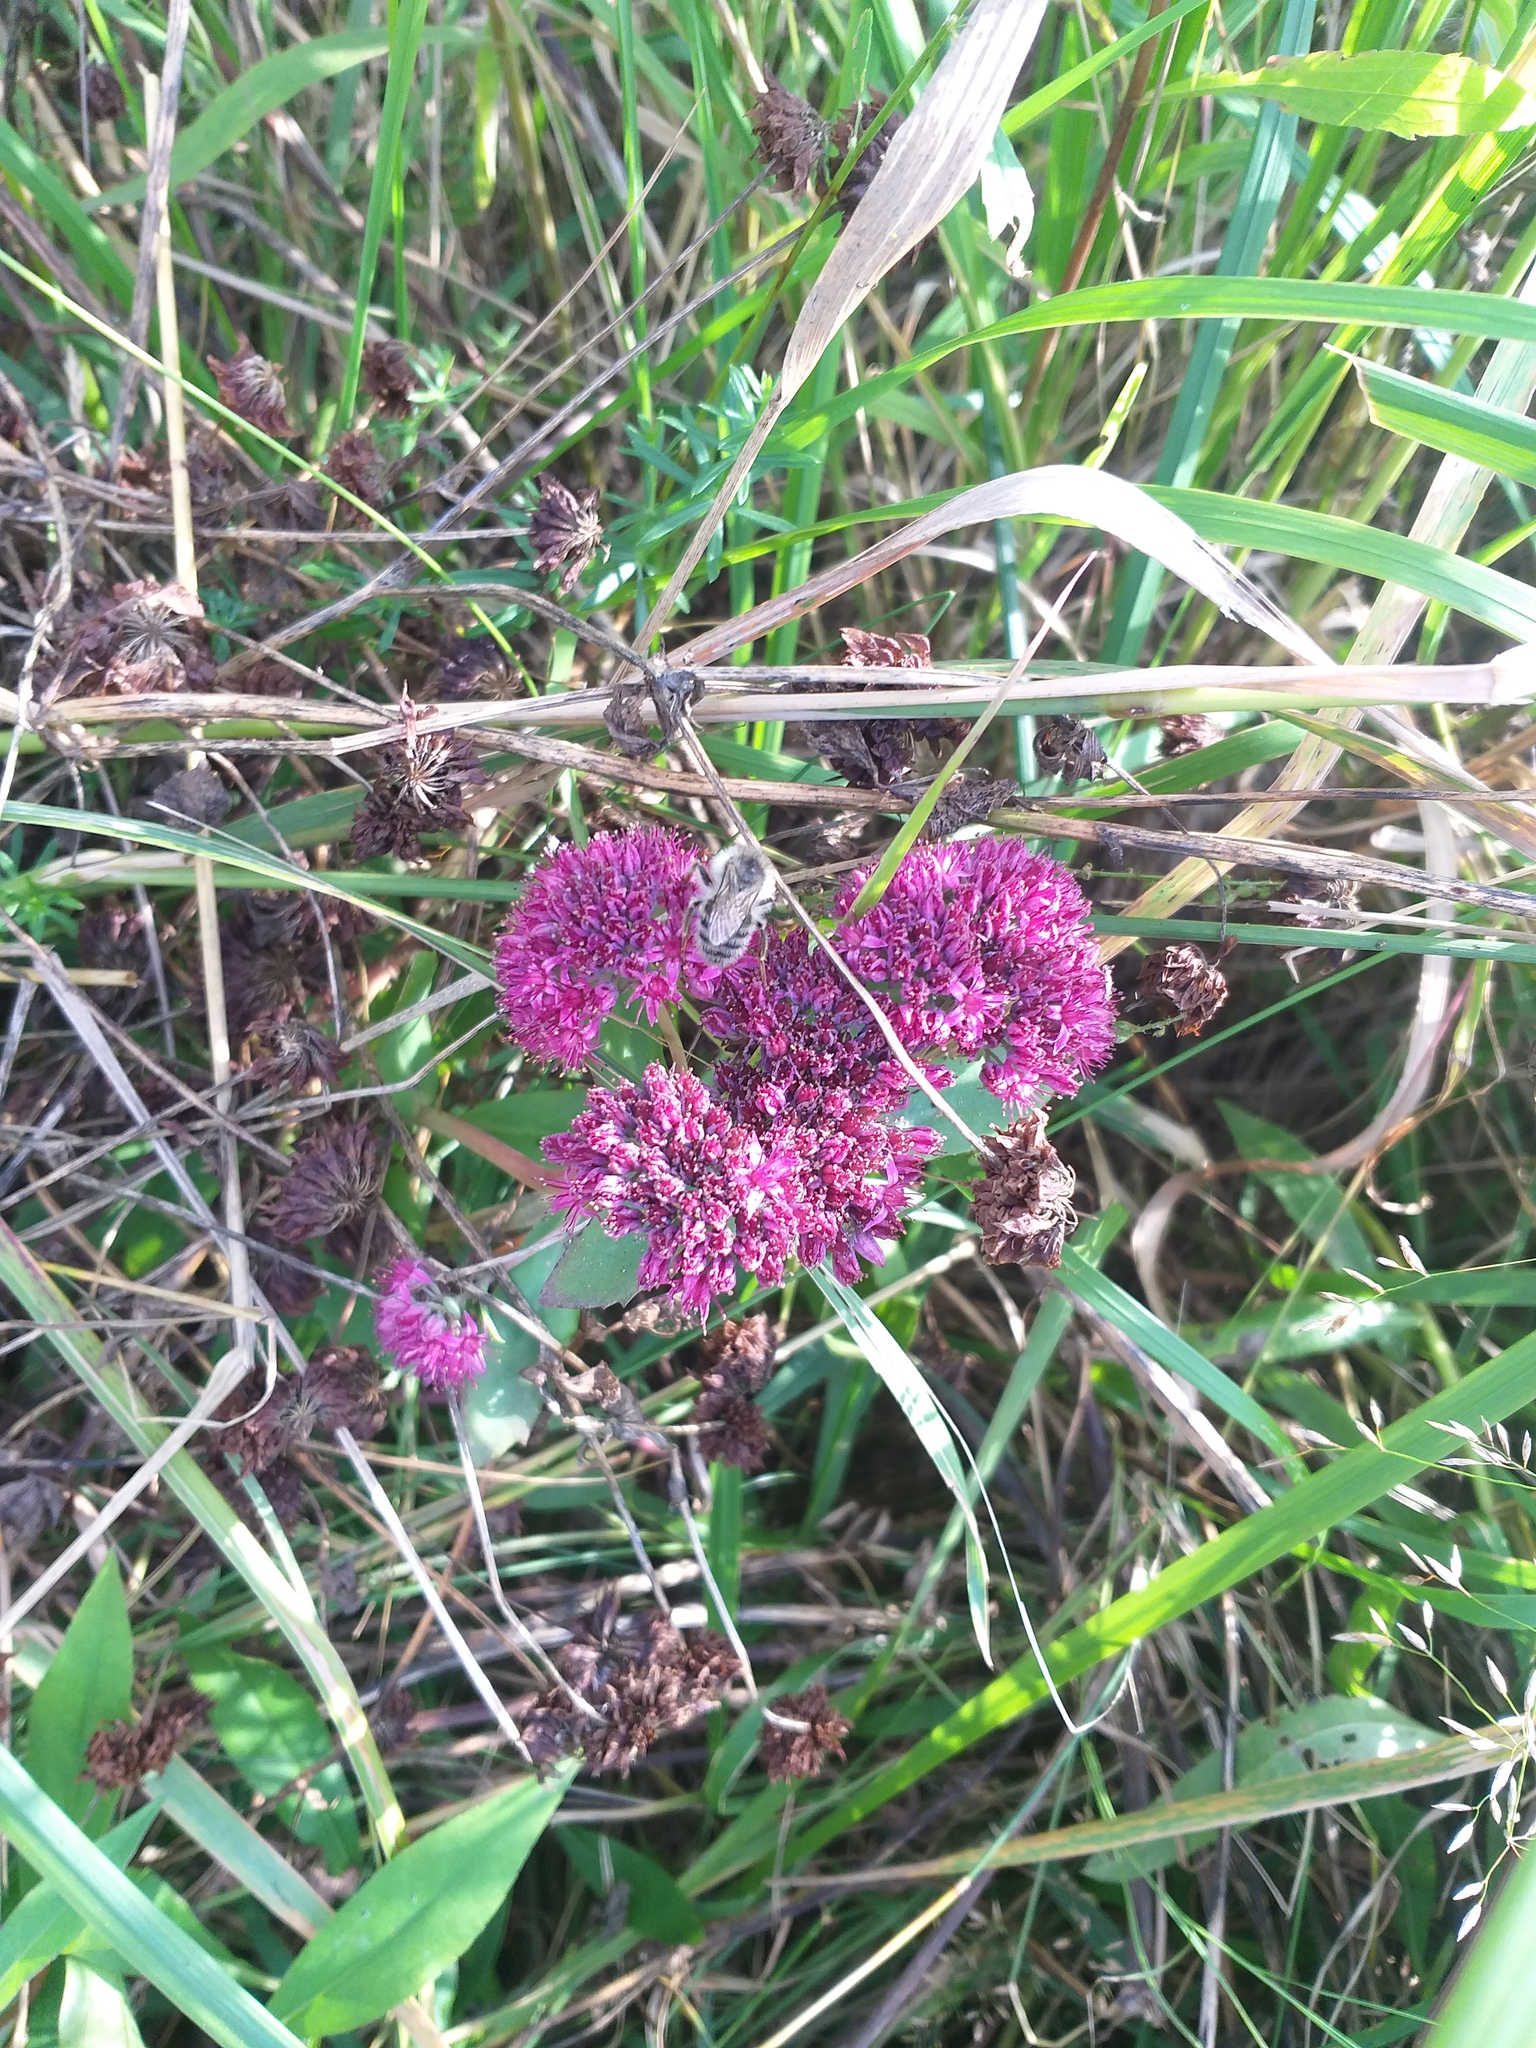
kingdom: Plantae
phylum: Tracheophyta
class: Magnoliopsida
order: Saxifragales
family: Crassulaceae
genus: Hylotelephium
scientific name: Hylotelephium telephium
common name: Live-forever
